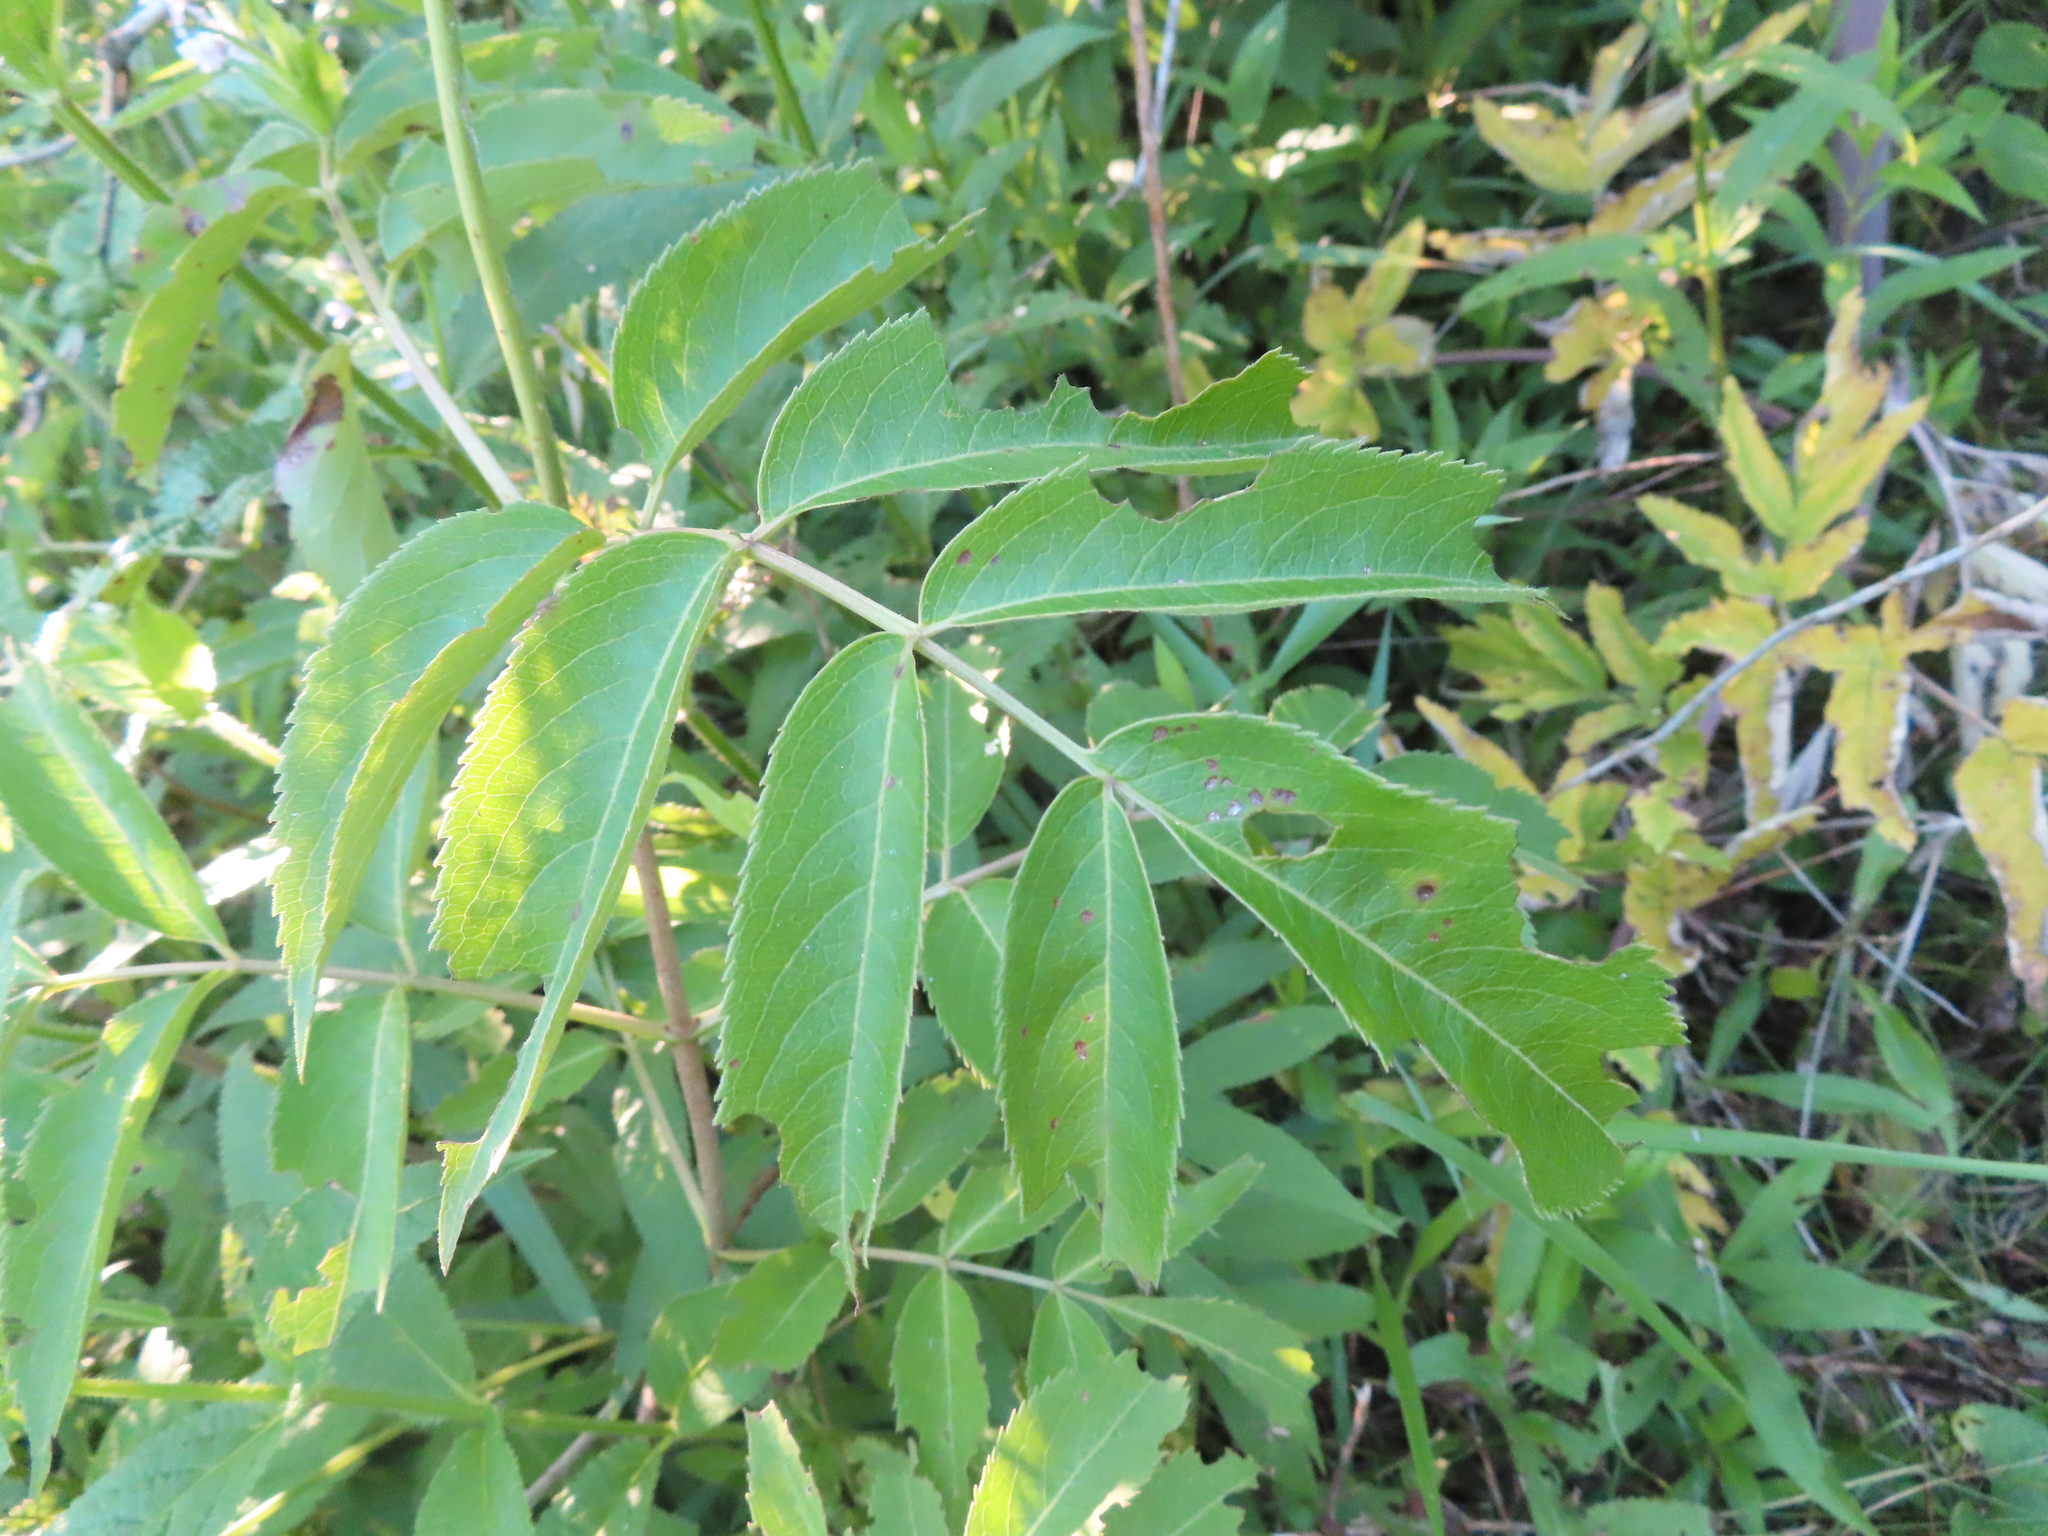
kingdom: Plantae
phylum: Tracheophyta
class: Magnoliopsida
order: Dipsacales
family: Viburnaceae
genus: Sambucus
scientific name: Sambucus canadensis
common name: American elder
